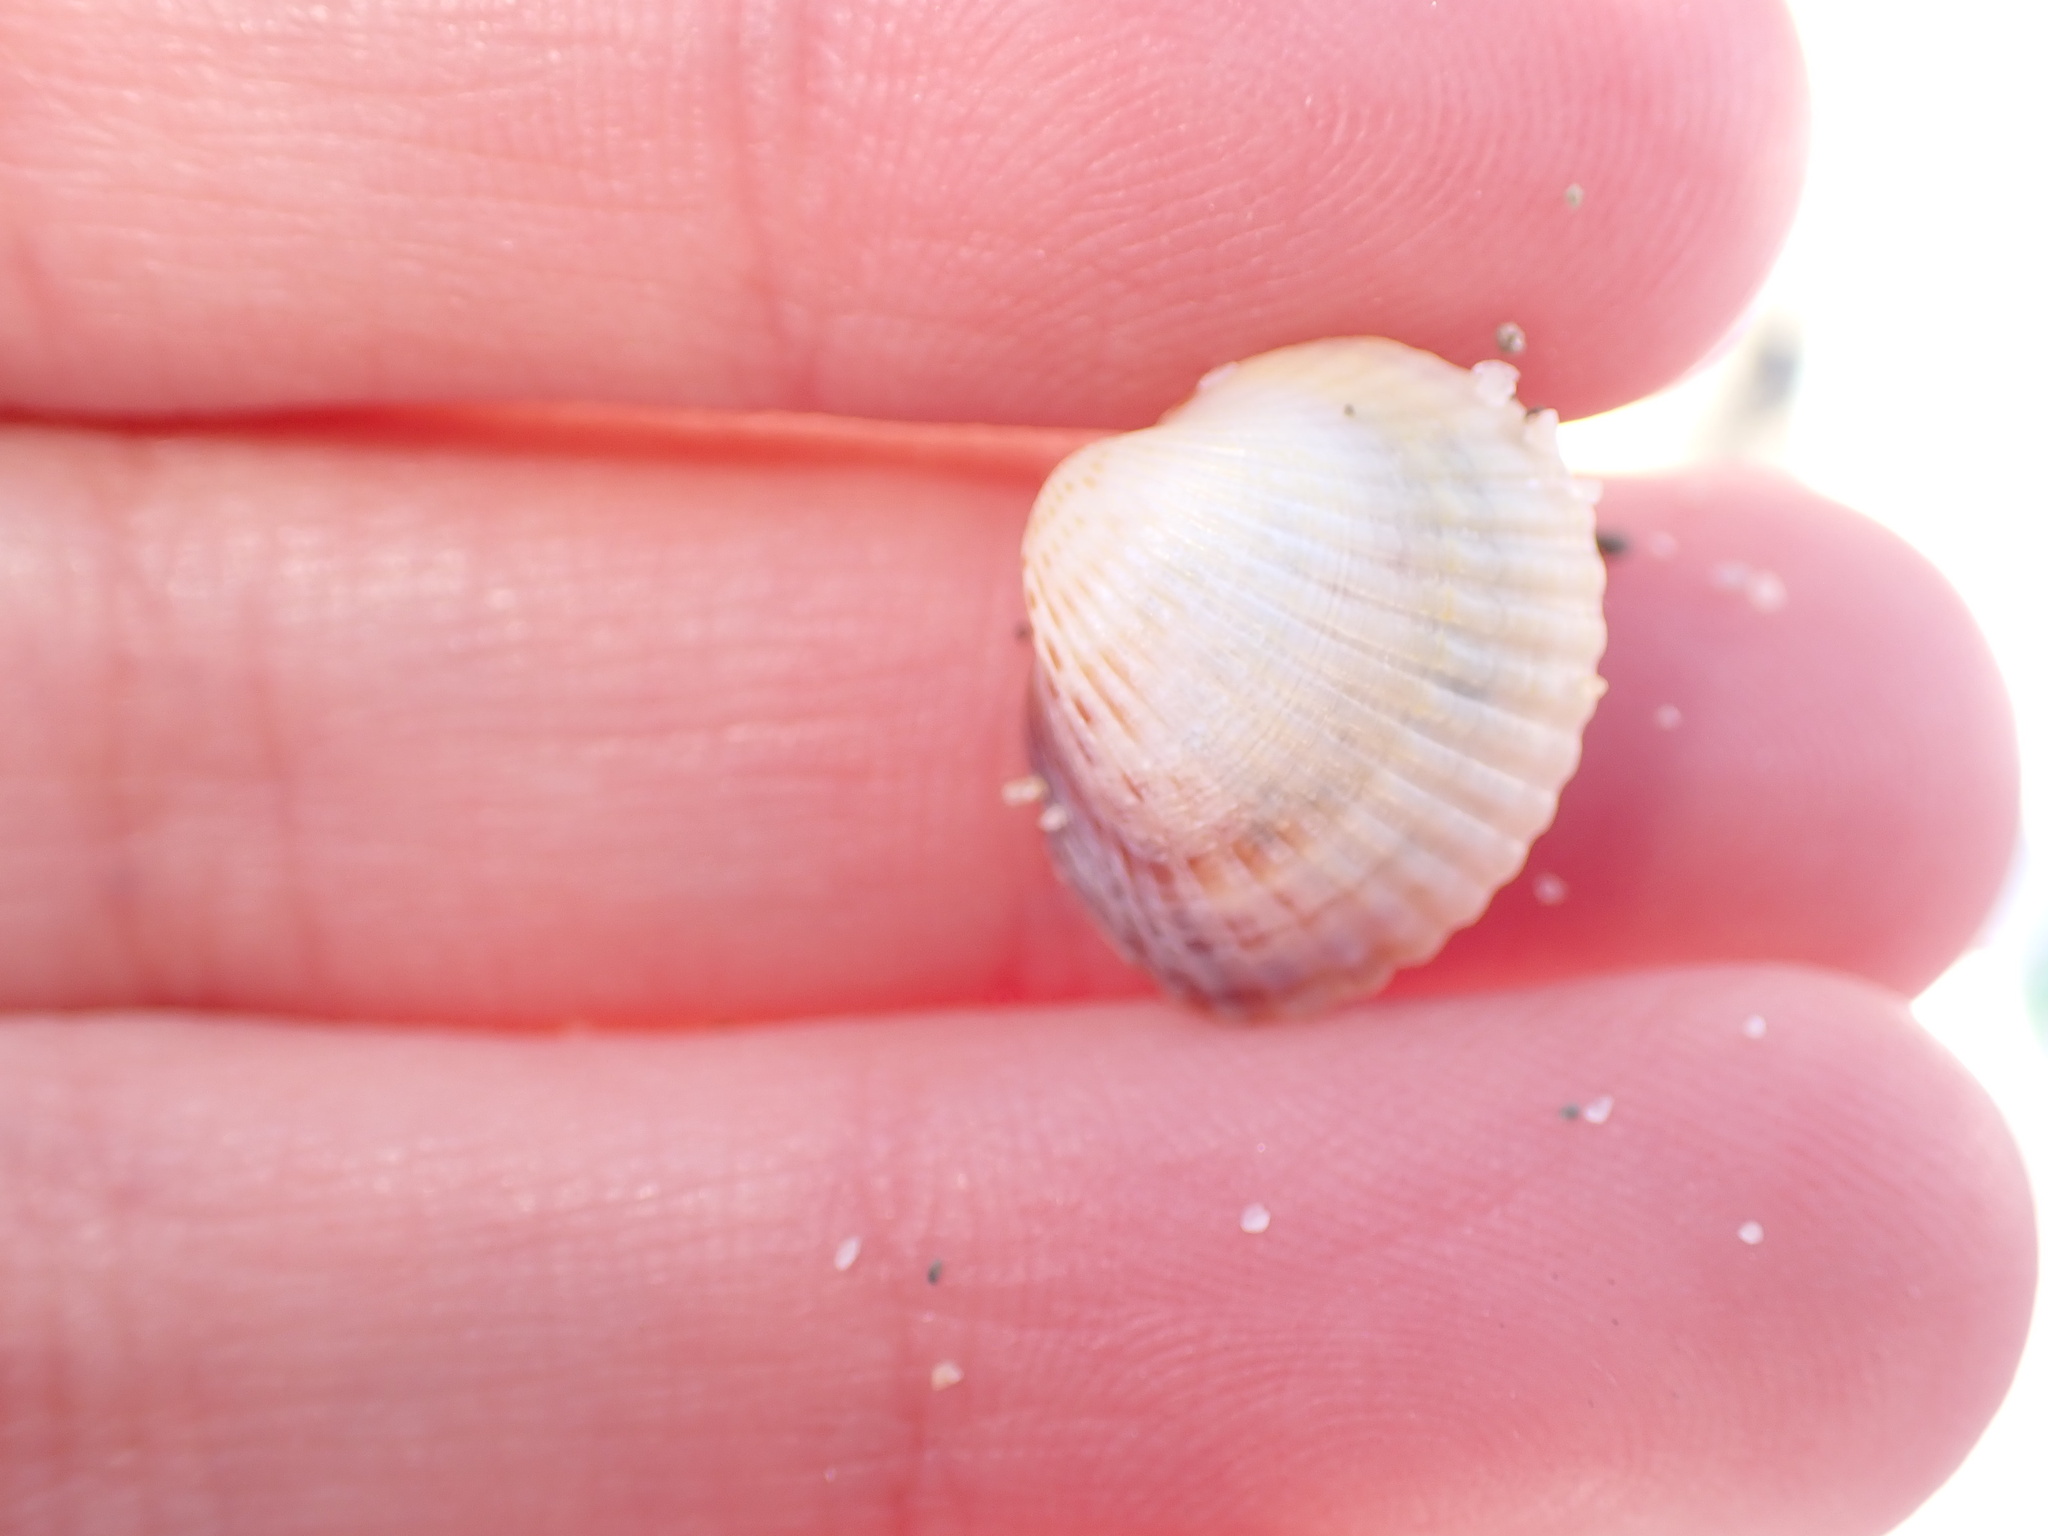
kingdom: Animalia
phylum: Mollusca
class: Bivalvia
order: Cardiida
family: Cardiidae
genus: Cerastoderma
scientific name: Cerastoderma glaucum
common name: Lagoon cockle
